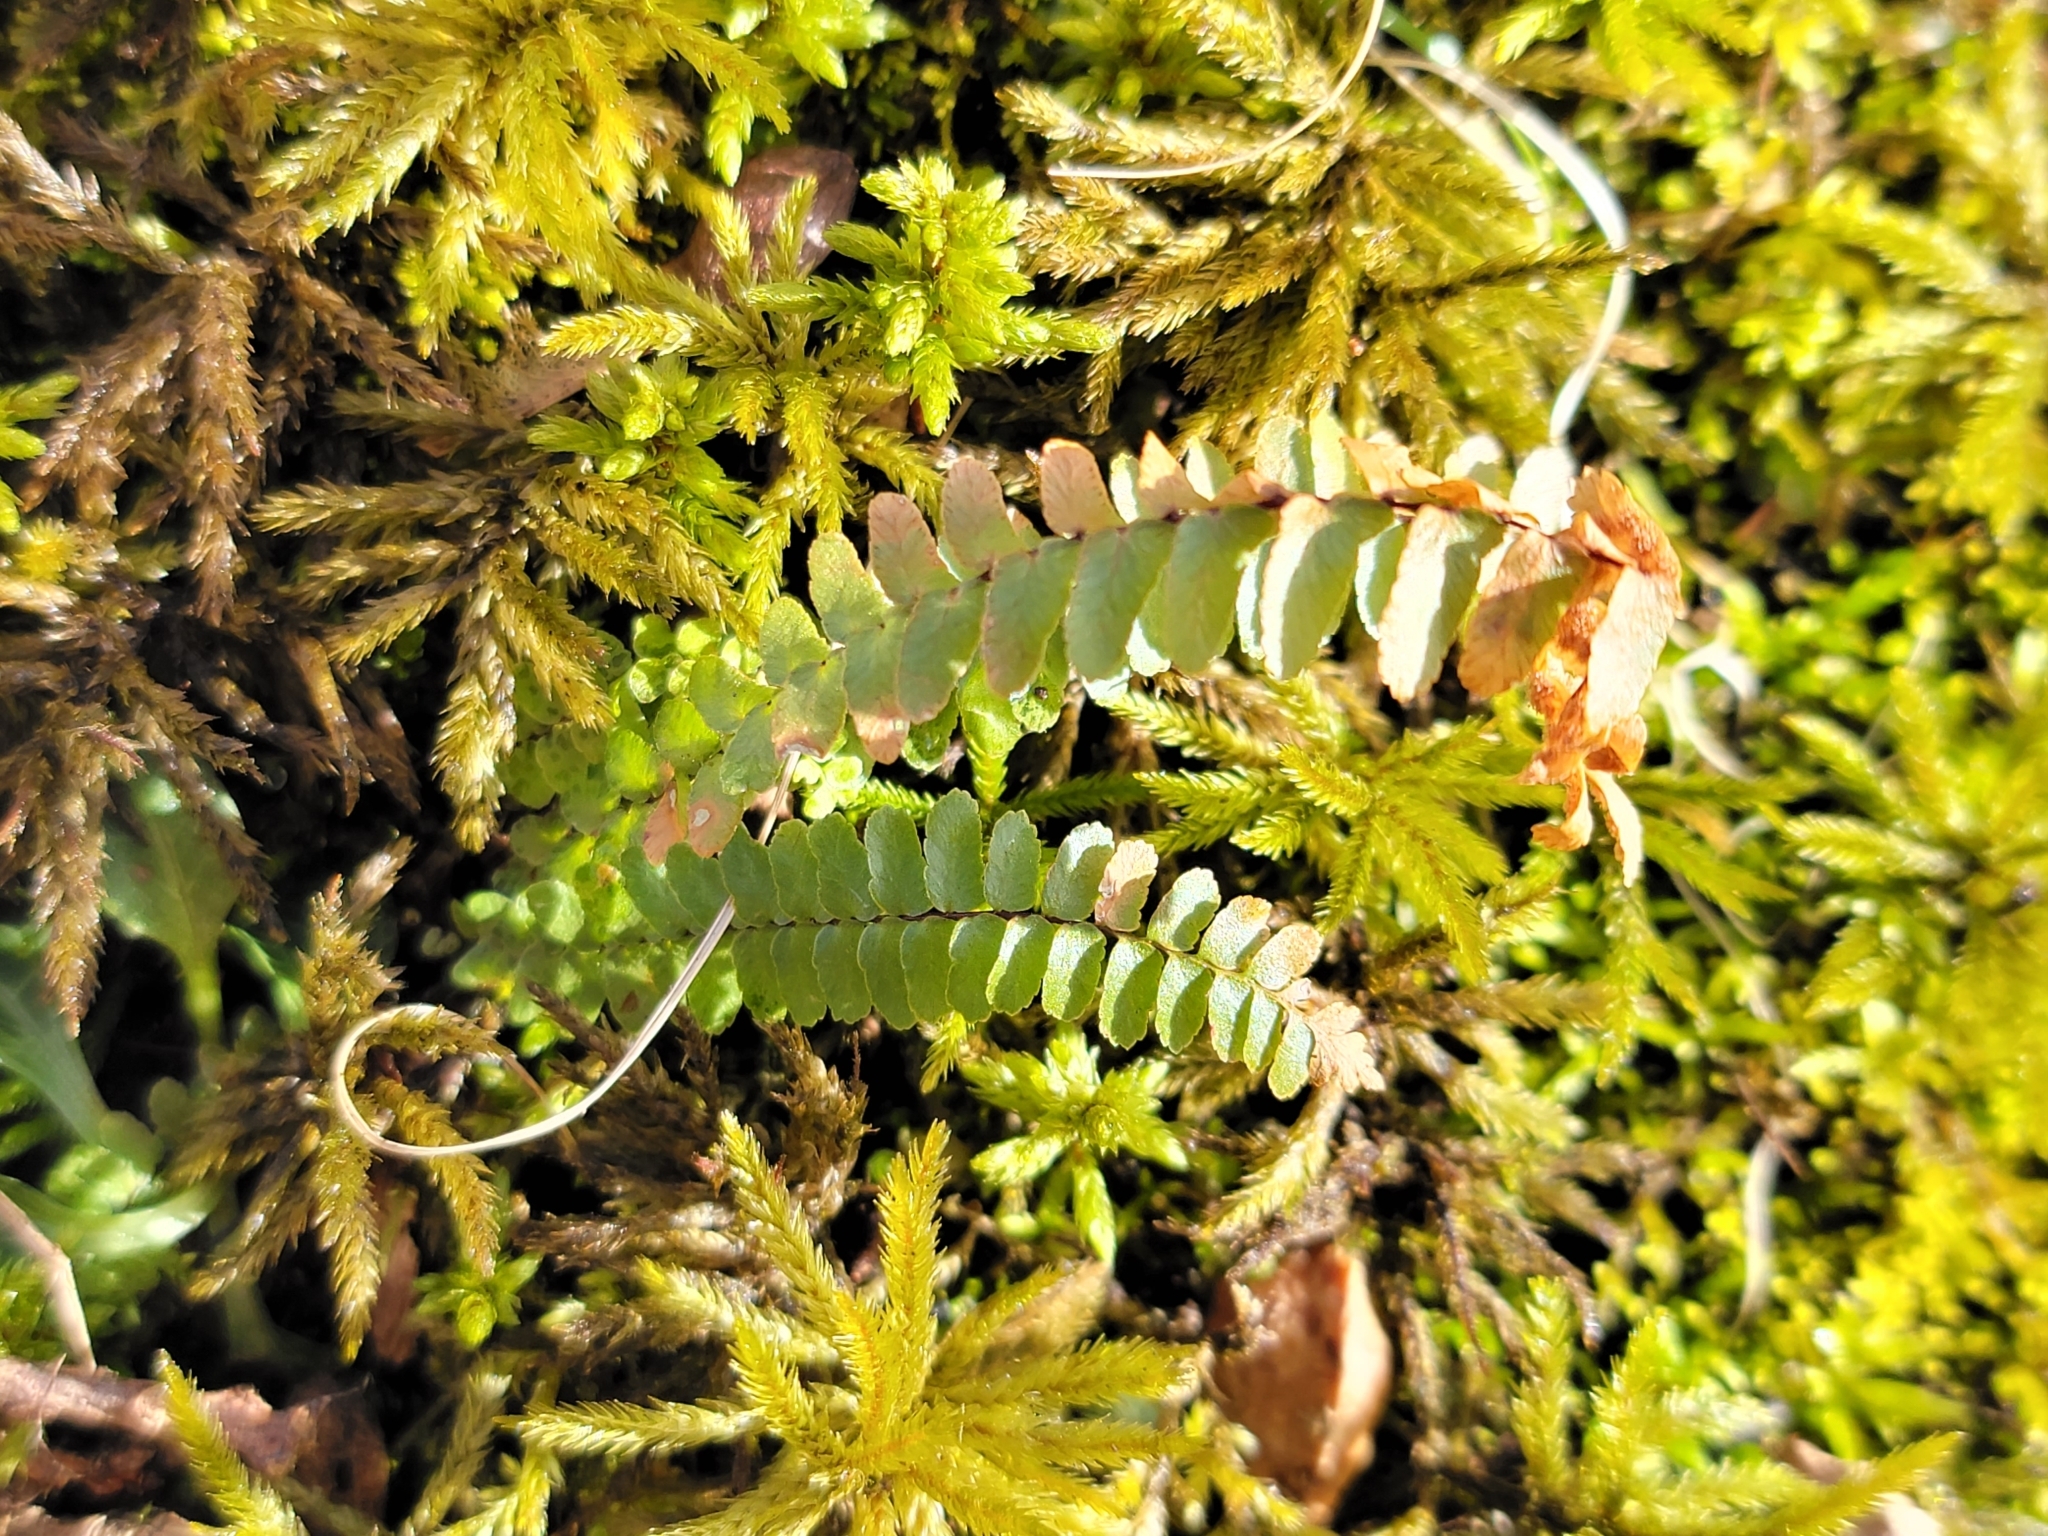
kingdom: Plantae
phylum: Tracheophyta
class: Polypodiopsida
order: Polypodiales
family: Aspleniaceae
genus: Asplenium
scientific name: Asplenium platyneuron
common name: Ebony spleenwort
